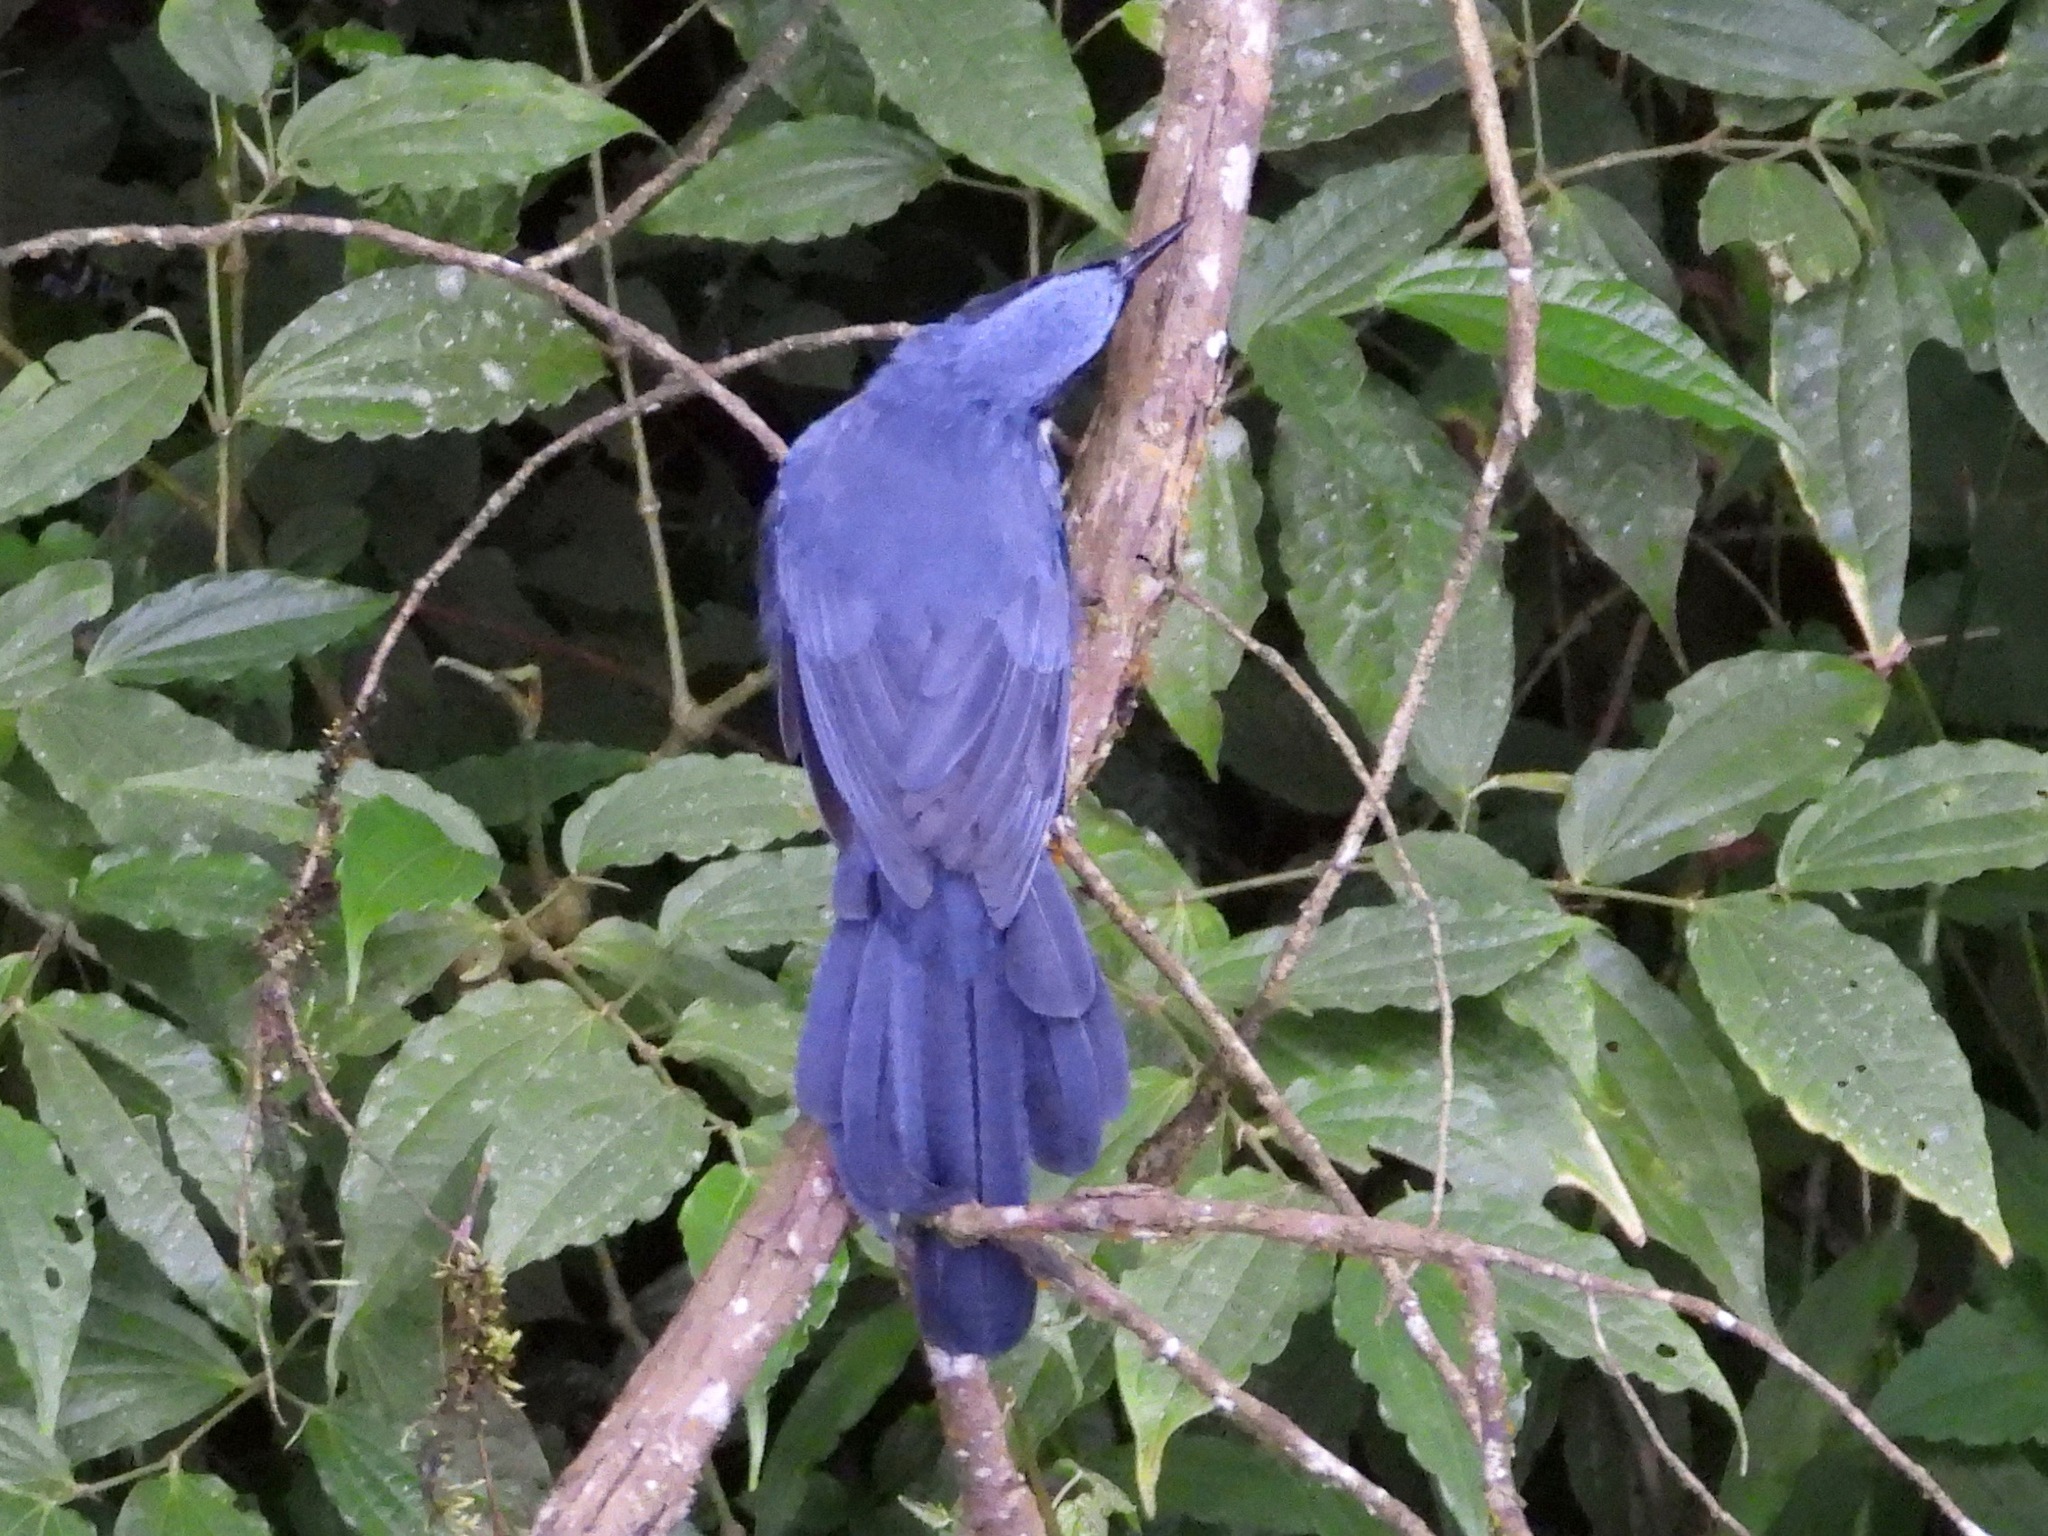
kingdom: Animalia
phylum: Chordata
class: Aves
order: Passeriformes
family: Mimidae
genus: Melanotis
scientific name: Melanotis hypoleucus
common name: Blue-and-white mockingbird
